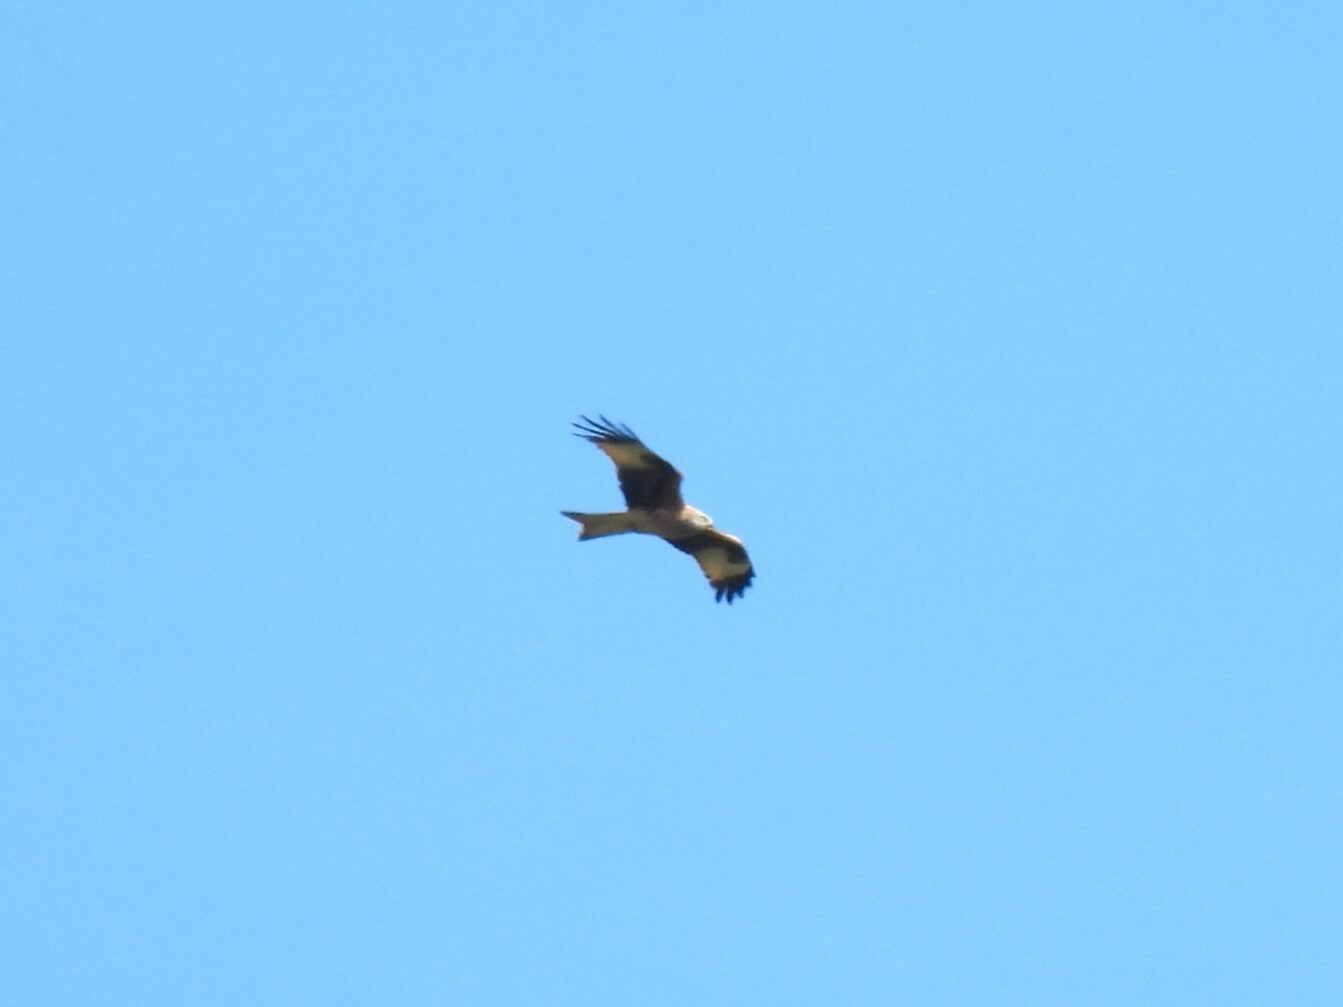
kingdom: Animalia
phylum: Chordata
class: Aves
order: Accipitriformes
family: Accipitridae
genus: Milvus
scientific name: Milvus milvus
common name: Red kite
